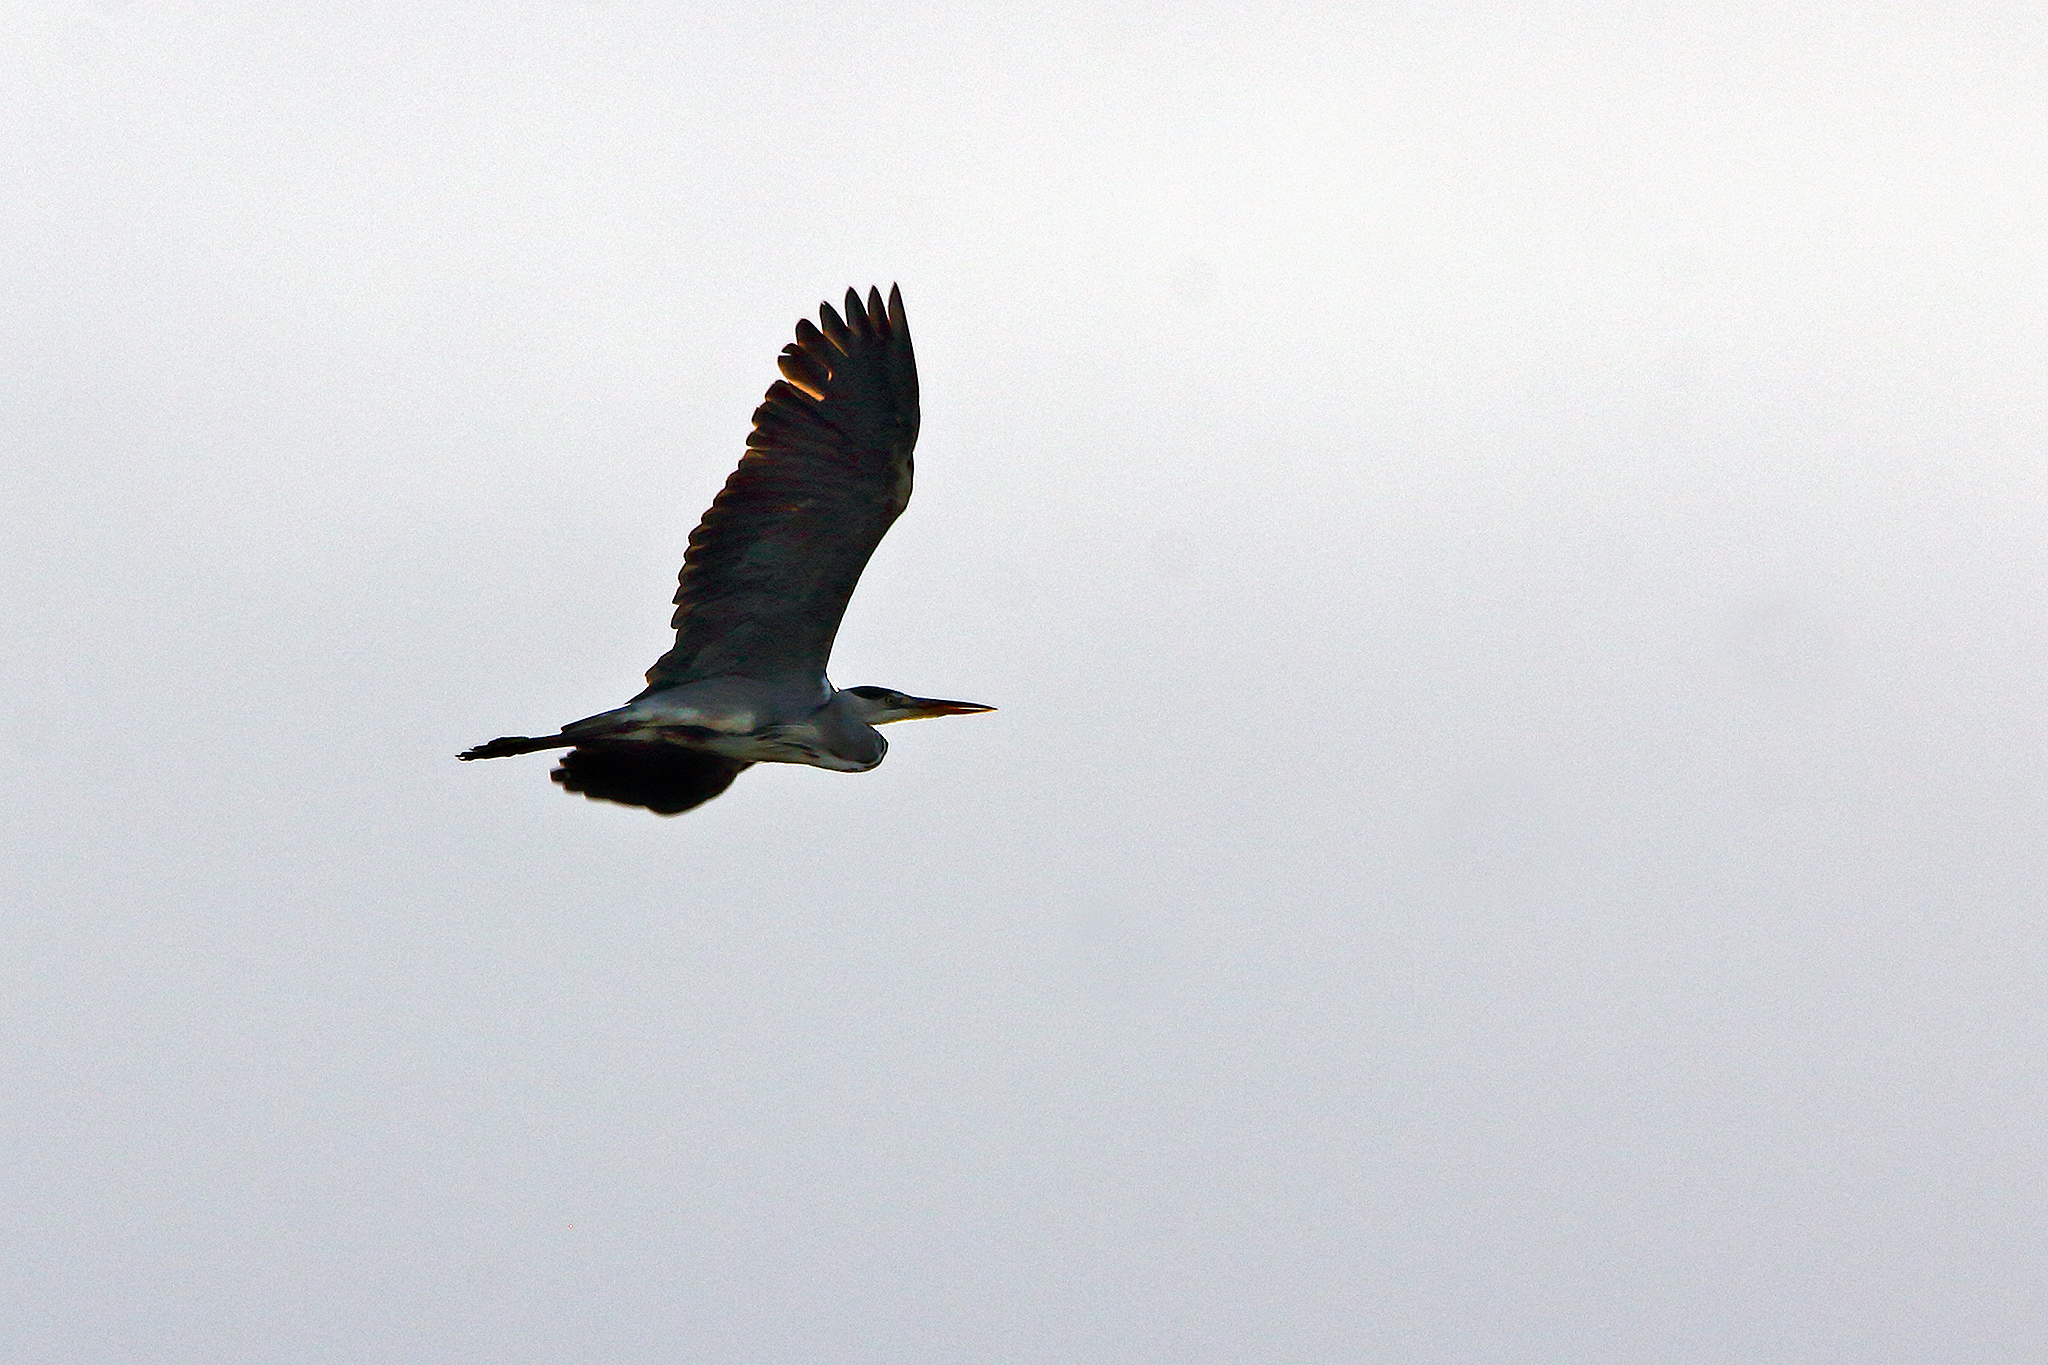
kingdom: Animalia
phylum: Chordata
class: Aves
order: Pelecaniformes
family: Ardeidae
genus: Ardea
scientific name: Ardea cinerea
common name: Grey heron
